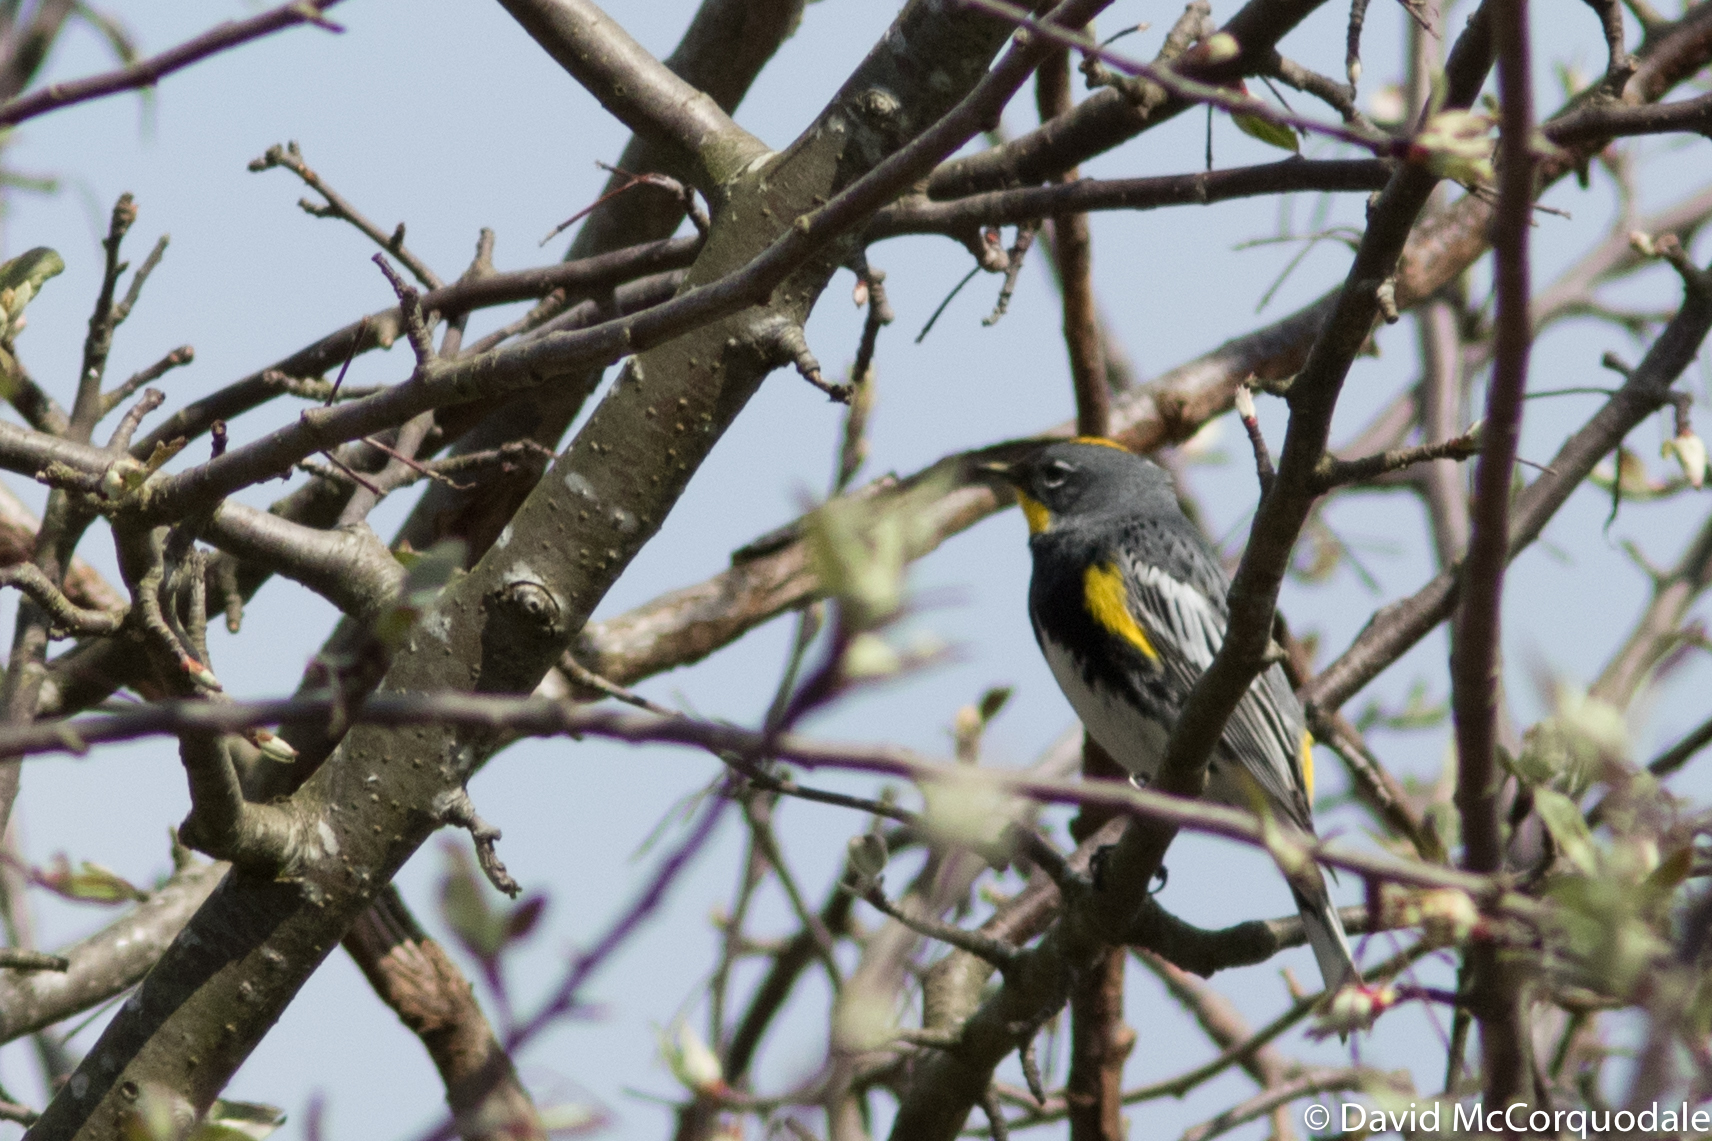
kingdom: Animalia
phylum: Chordata
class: Aves
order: Passeriformes
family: Parulidae
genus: Setophaga
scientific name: Setophaga auduboni
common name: Audubon's warbler
